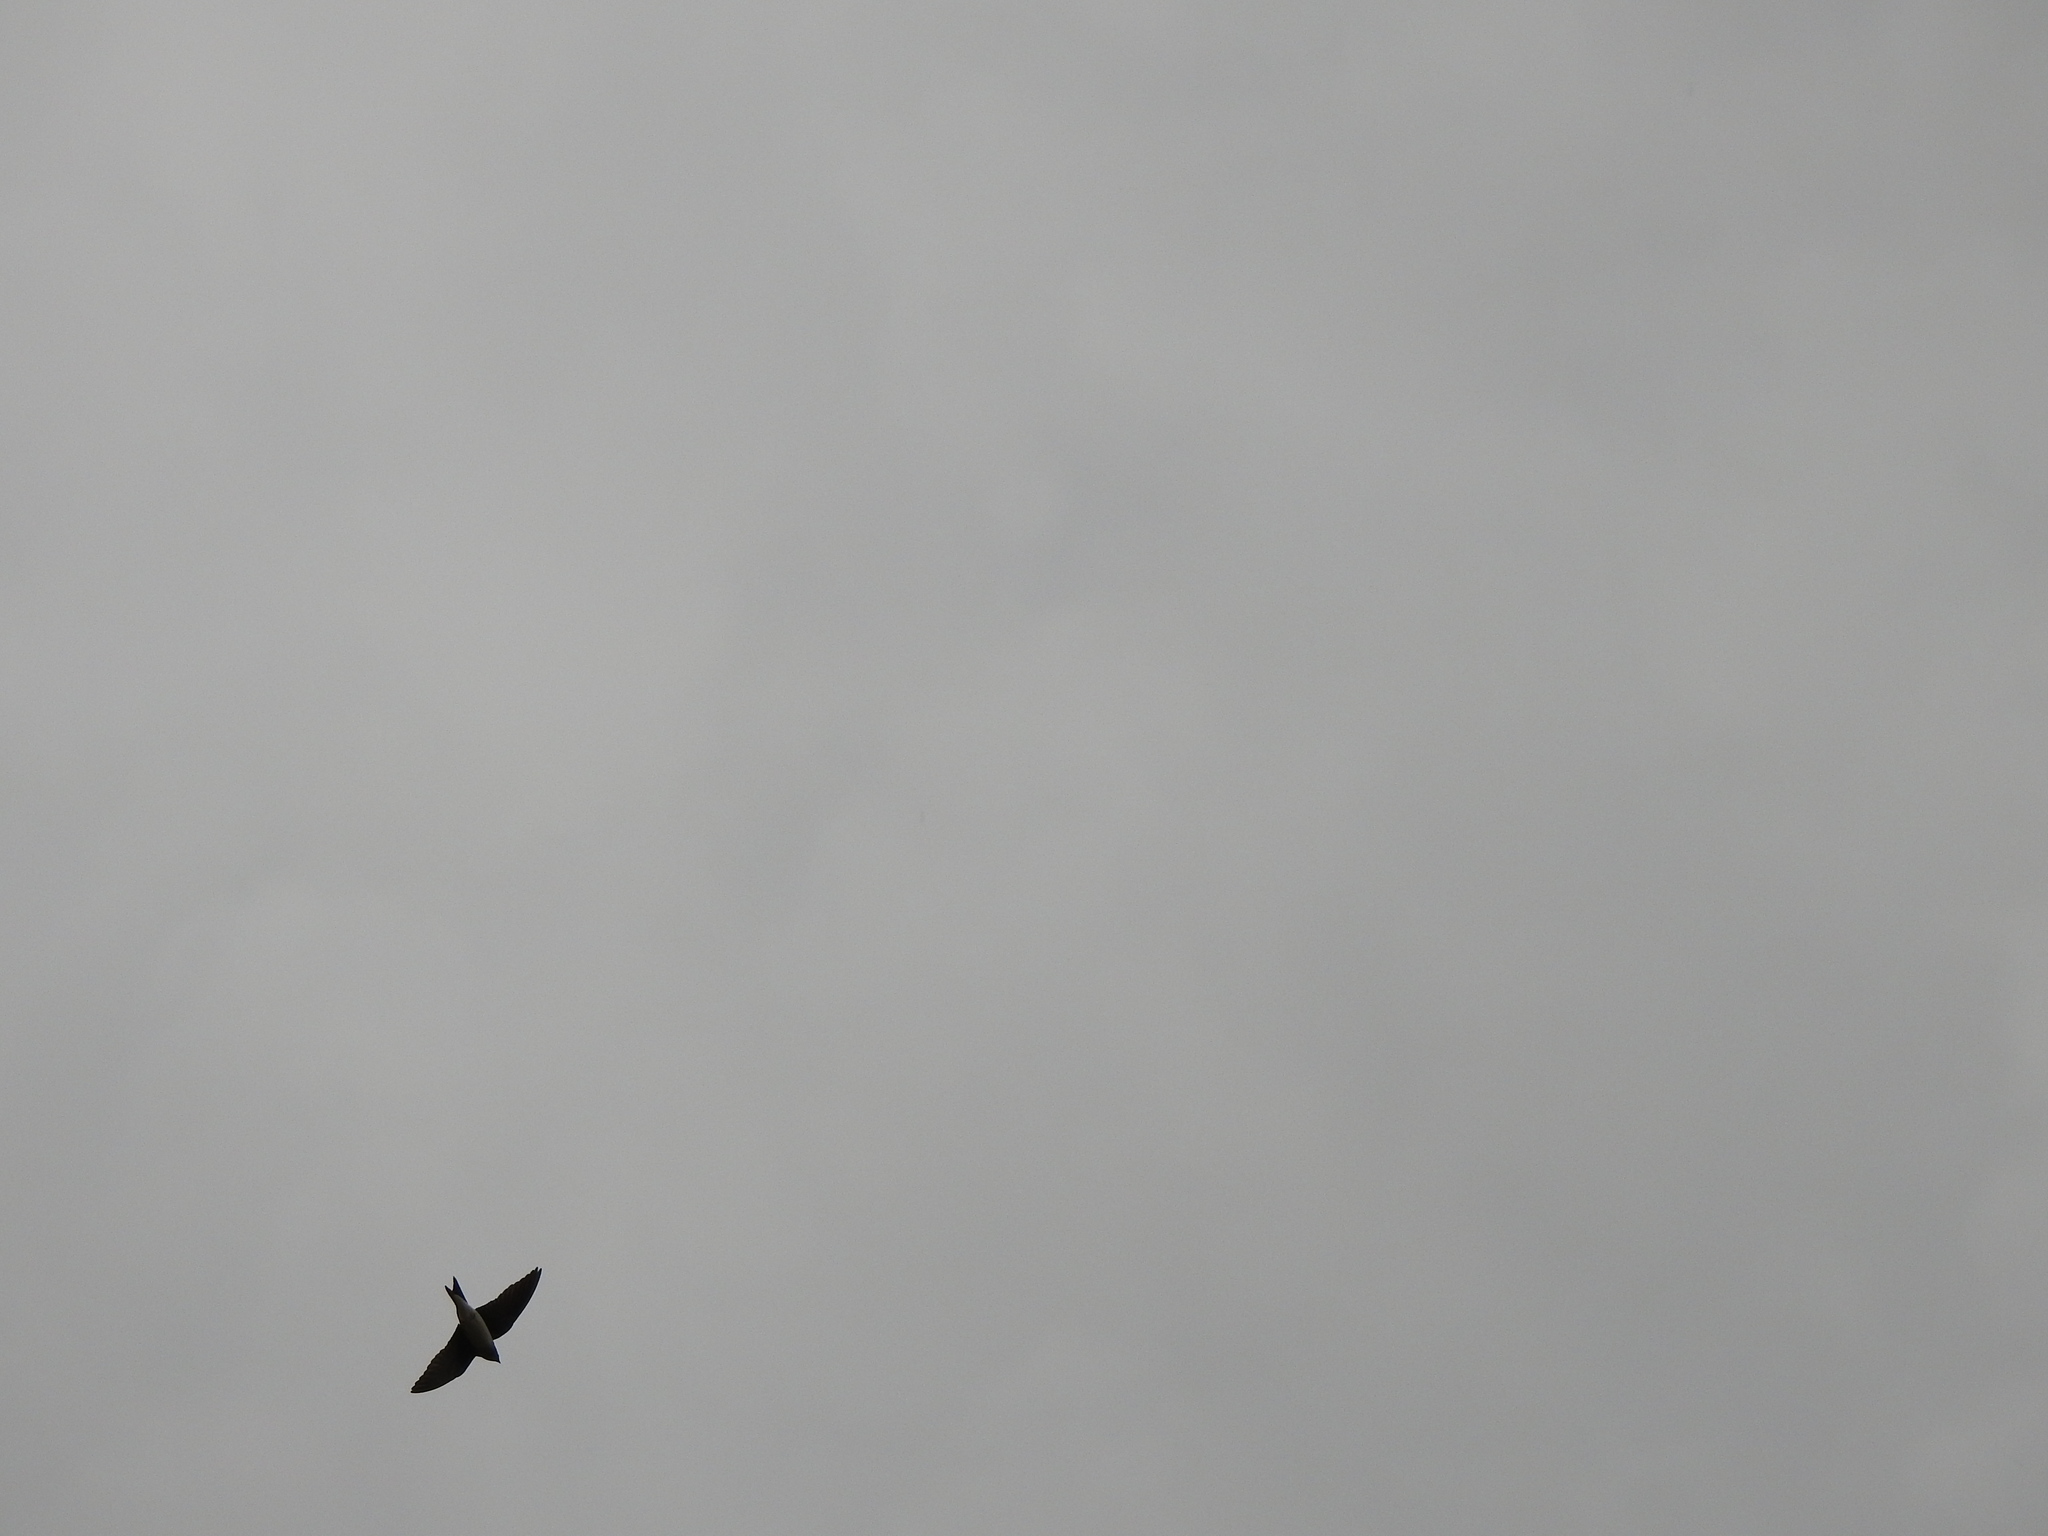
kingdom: Animalia
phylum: Chordata
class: Aves
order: Passeriformes
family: Hirundinidae
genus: Progne
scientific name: Progne chalybea
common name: Grey-breasted martin
